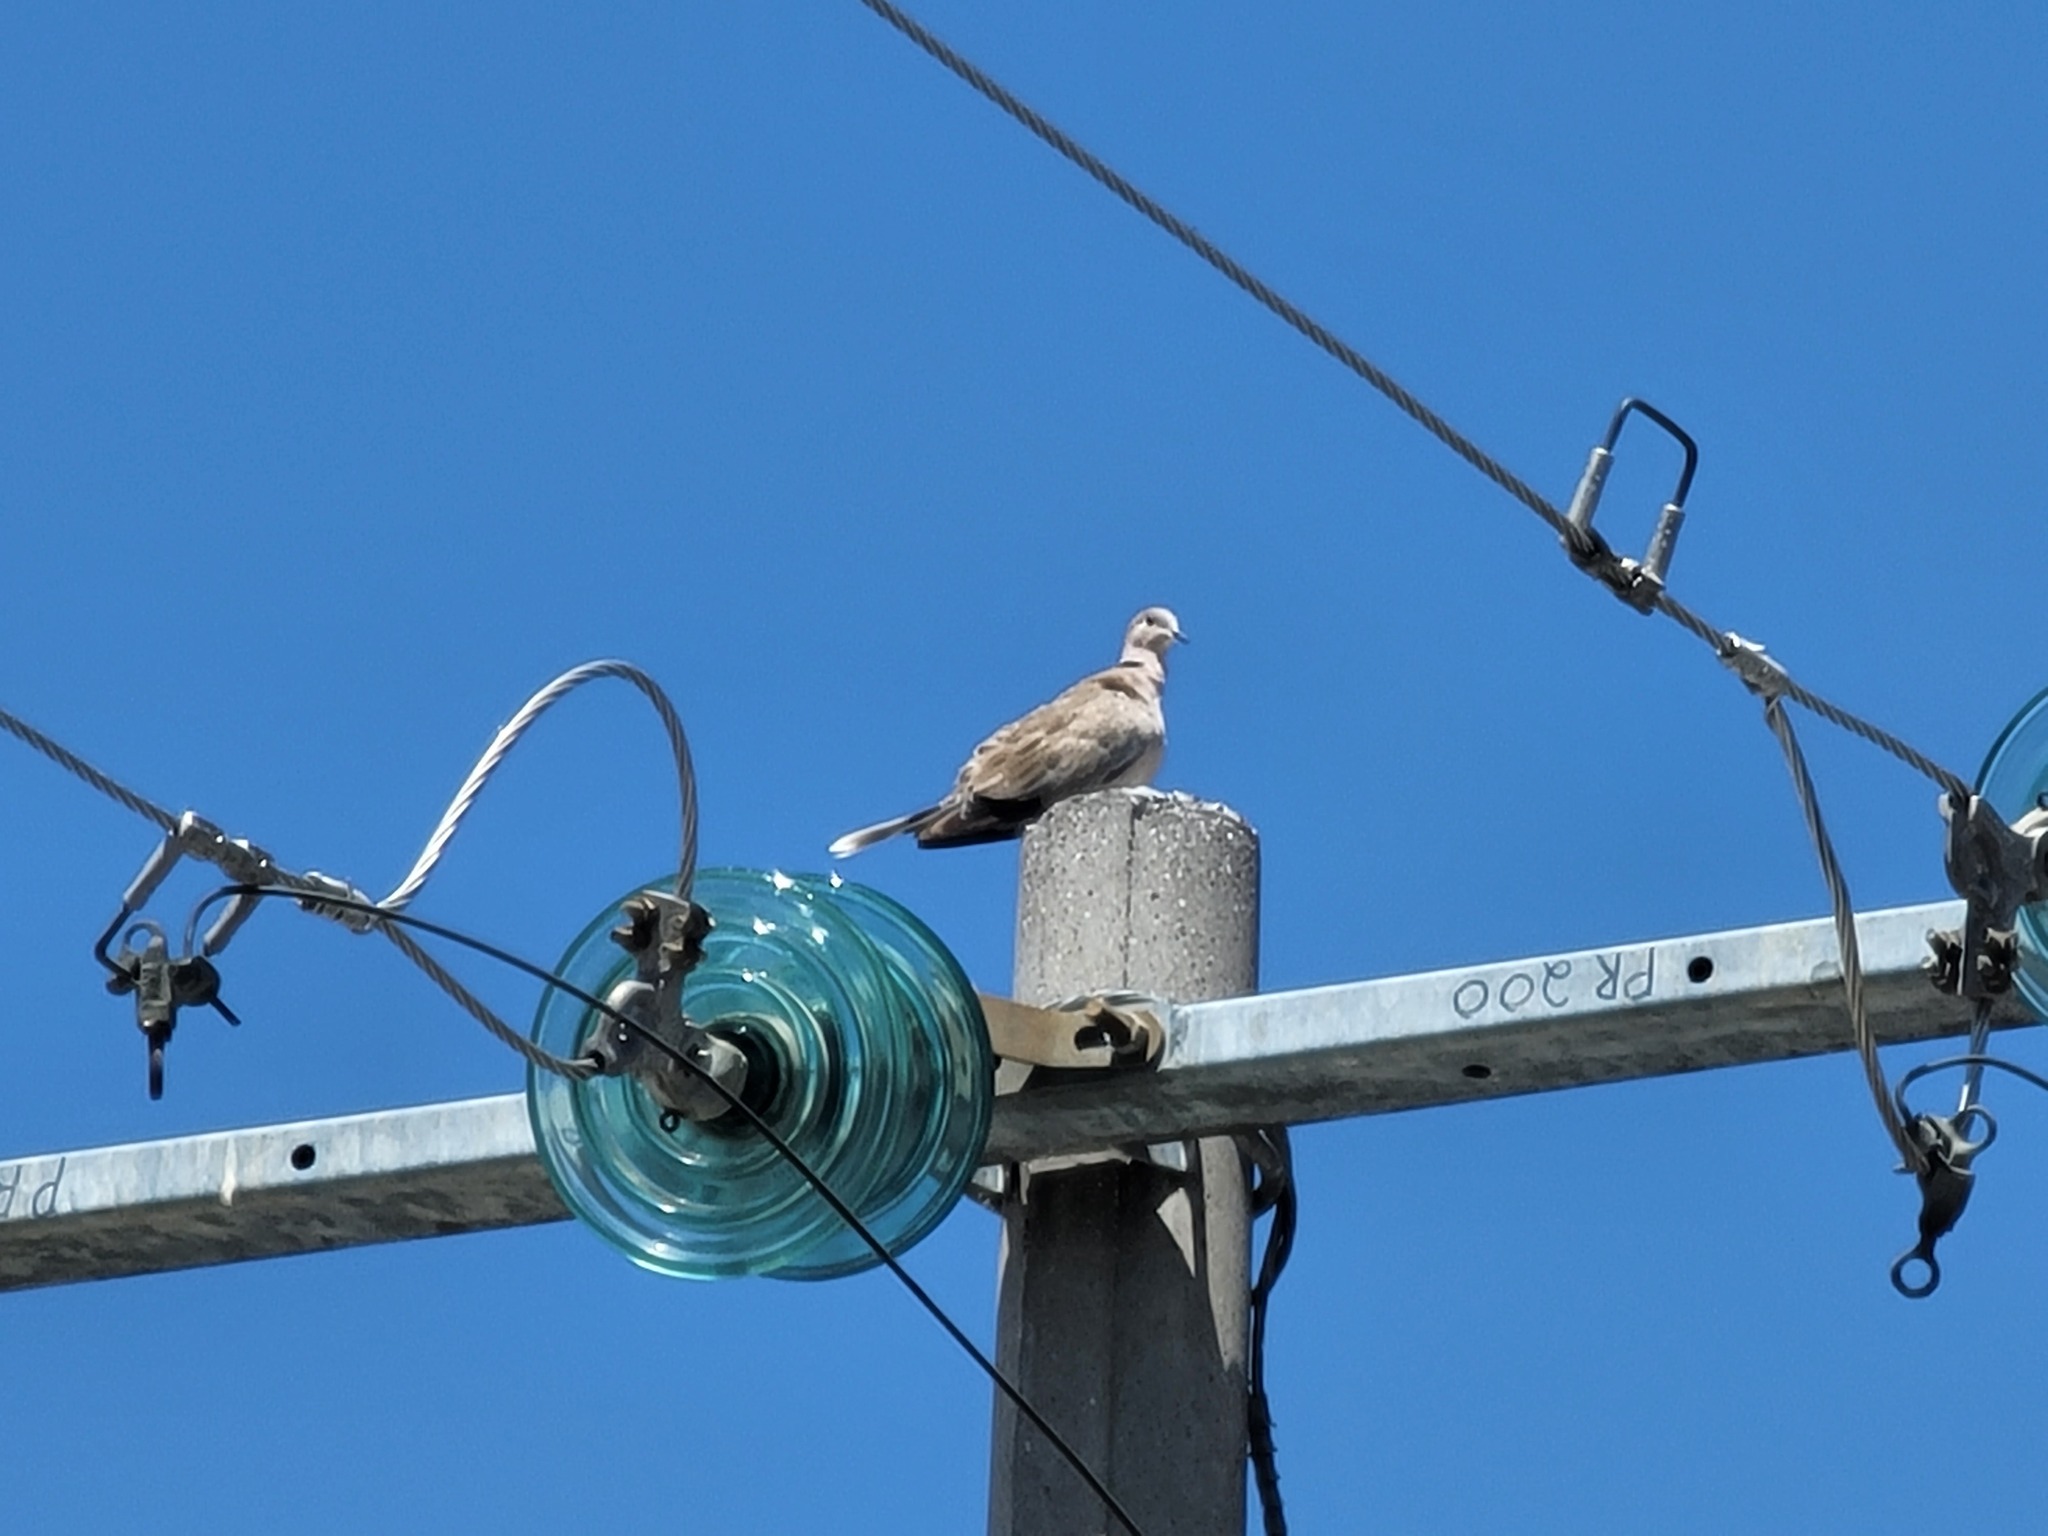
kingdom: Animalia
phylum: Chordata
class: Aves
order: Columbiformes
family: Columbidae
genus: Streptopelia
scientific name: Streptopelia decaocto
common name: Eurasian collared dove
